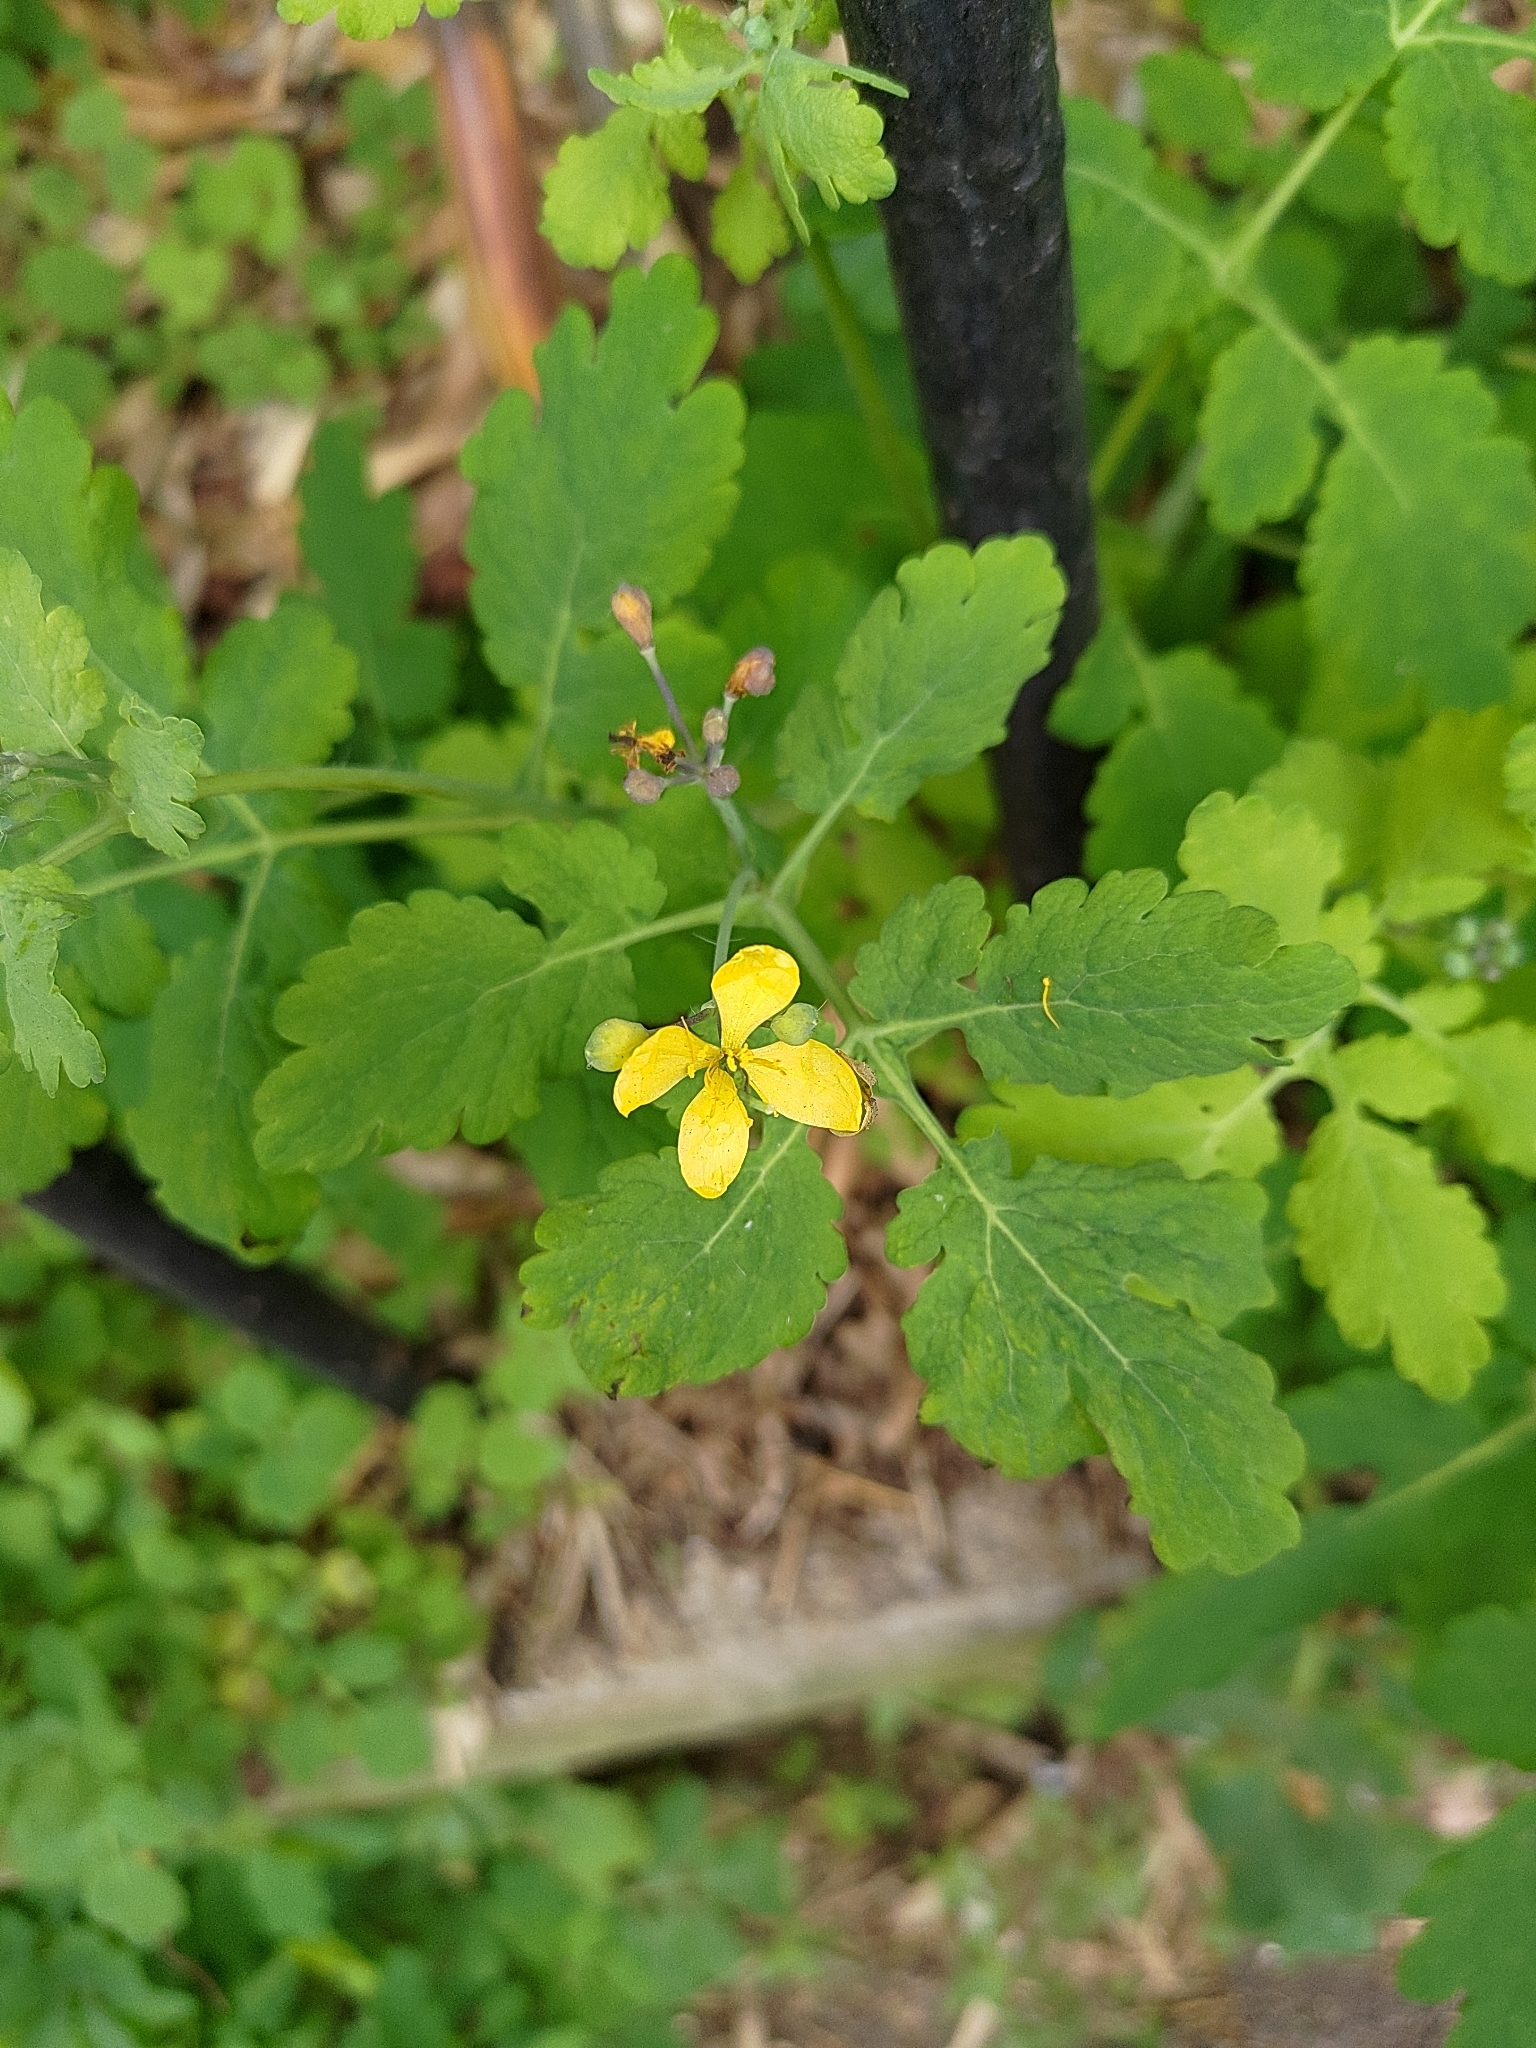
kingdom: Plantae
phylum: Tracheophyta
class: Magnoliopsida
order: Ranunculales
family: Papaveraceae
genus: Chelidonium
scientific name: Chelidonium majus
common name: Greater celandine
